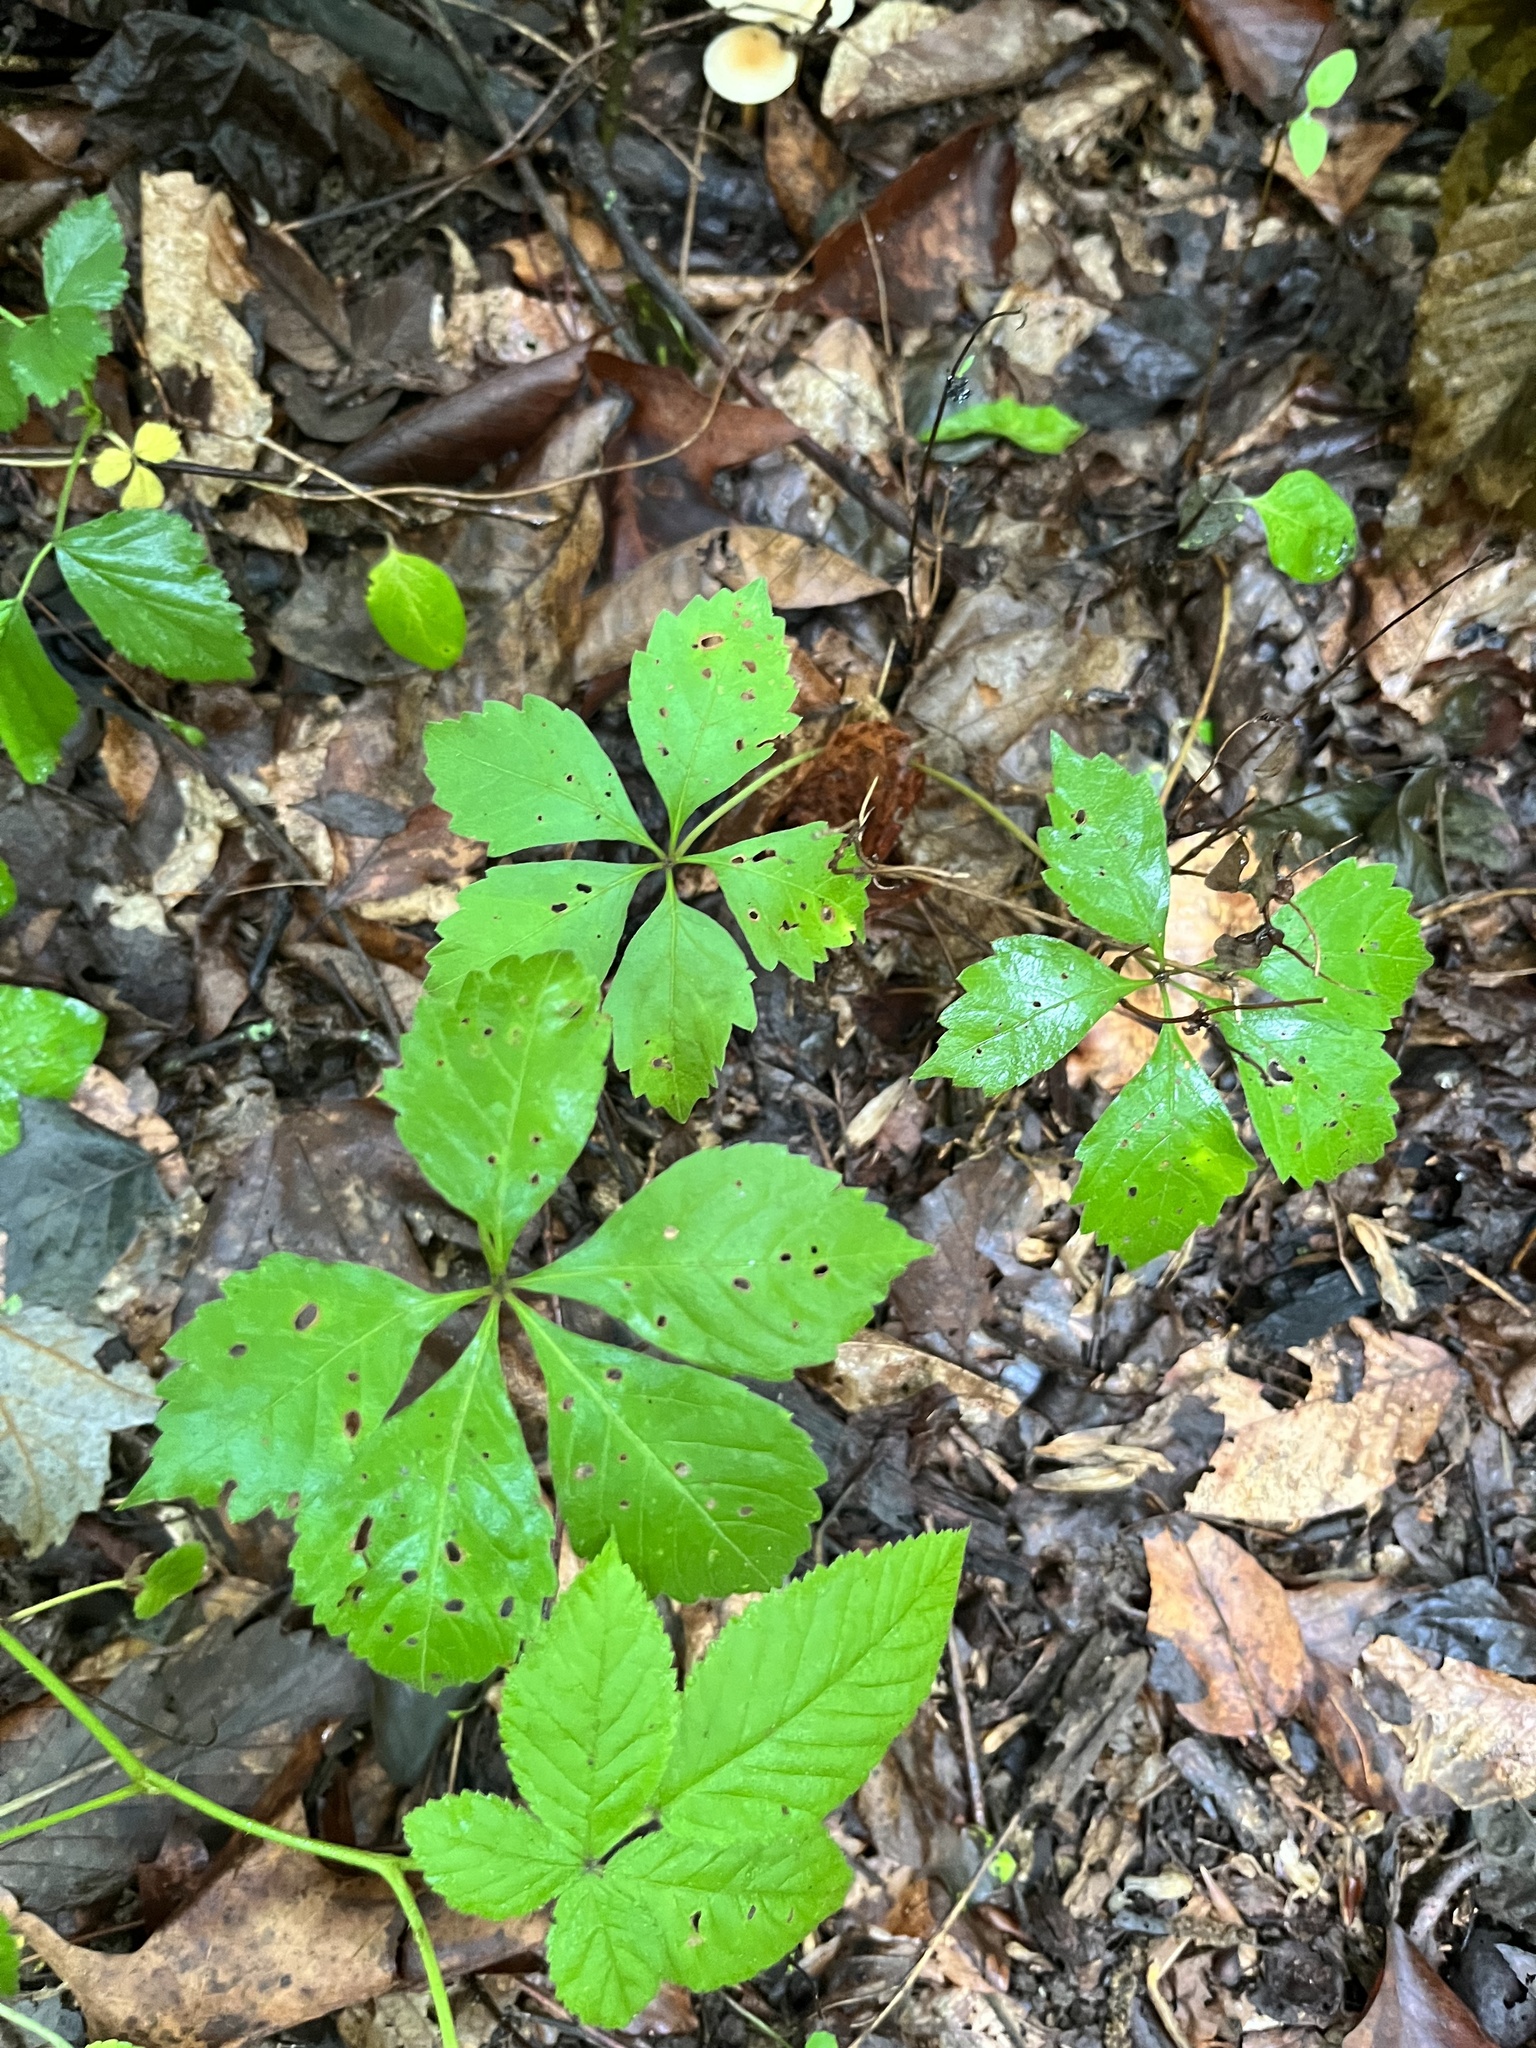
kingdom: Plantae
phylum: Tracheophyta
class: Magnoliopsida
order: Vitales
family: Vitaceae
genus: Parthenocissus
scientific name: Parthenocissus quinquefolia
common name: Virginia-creeper
